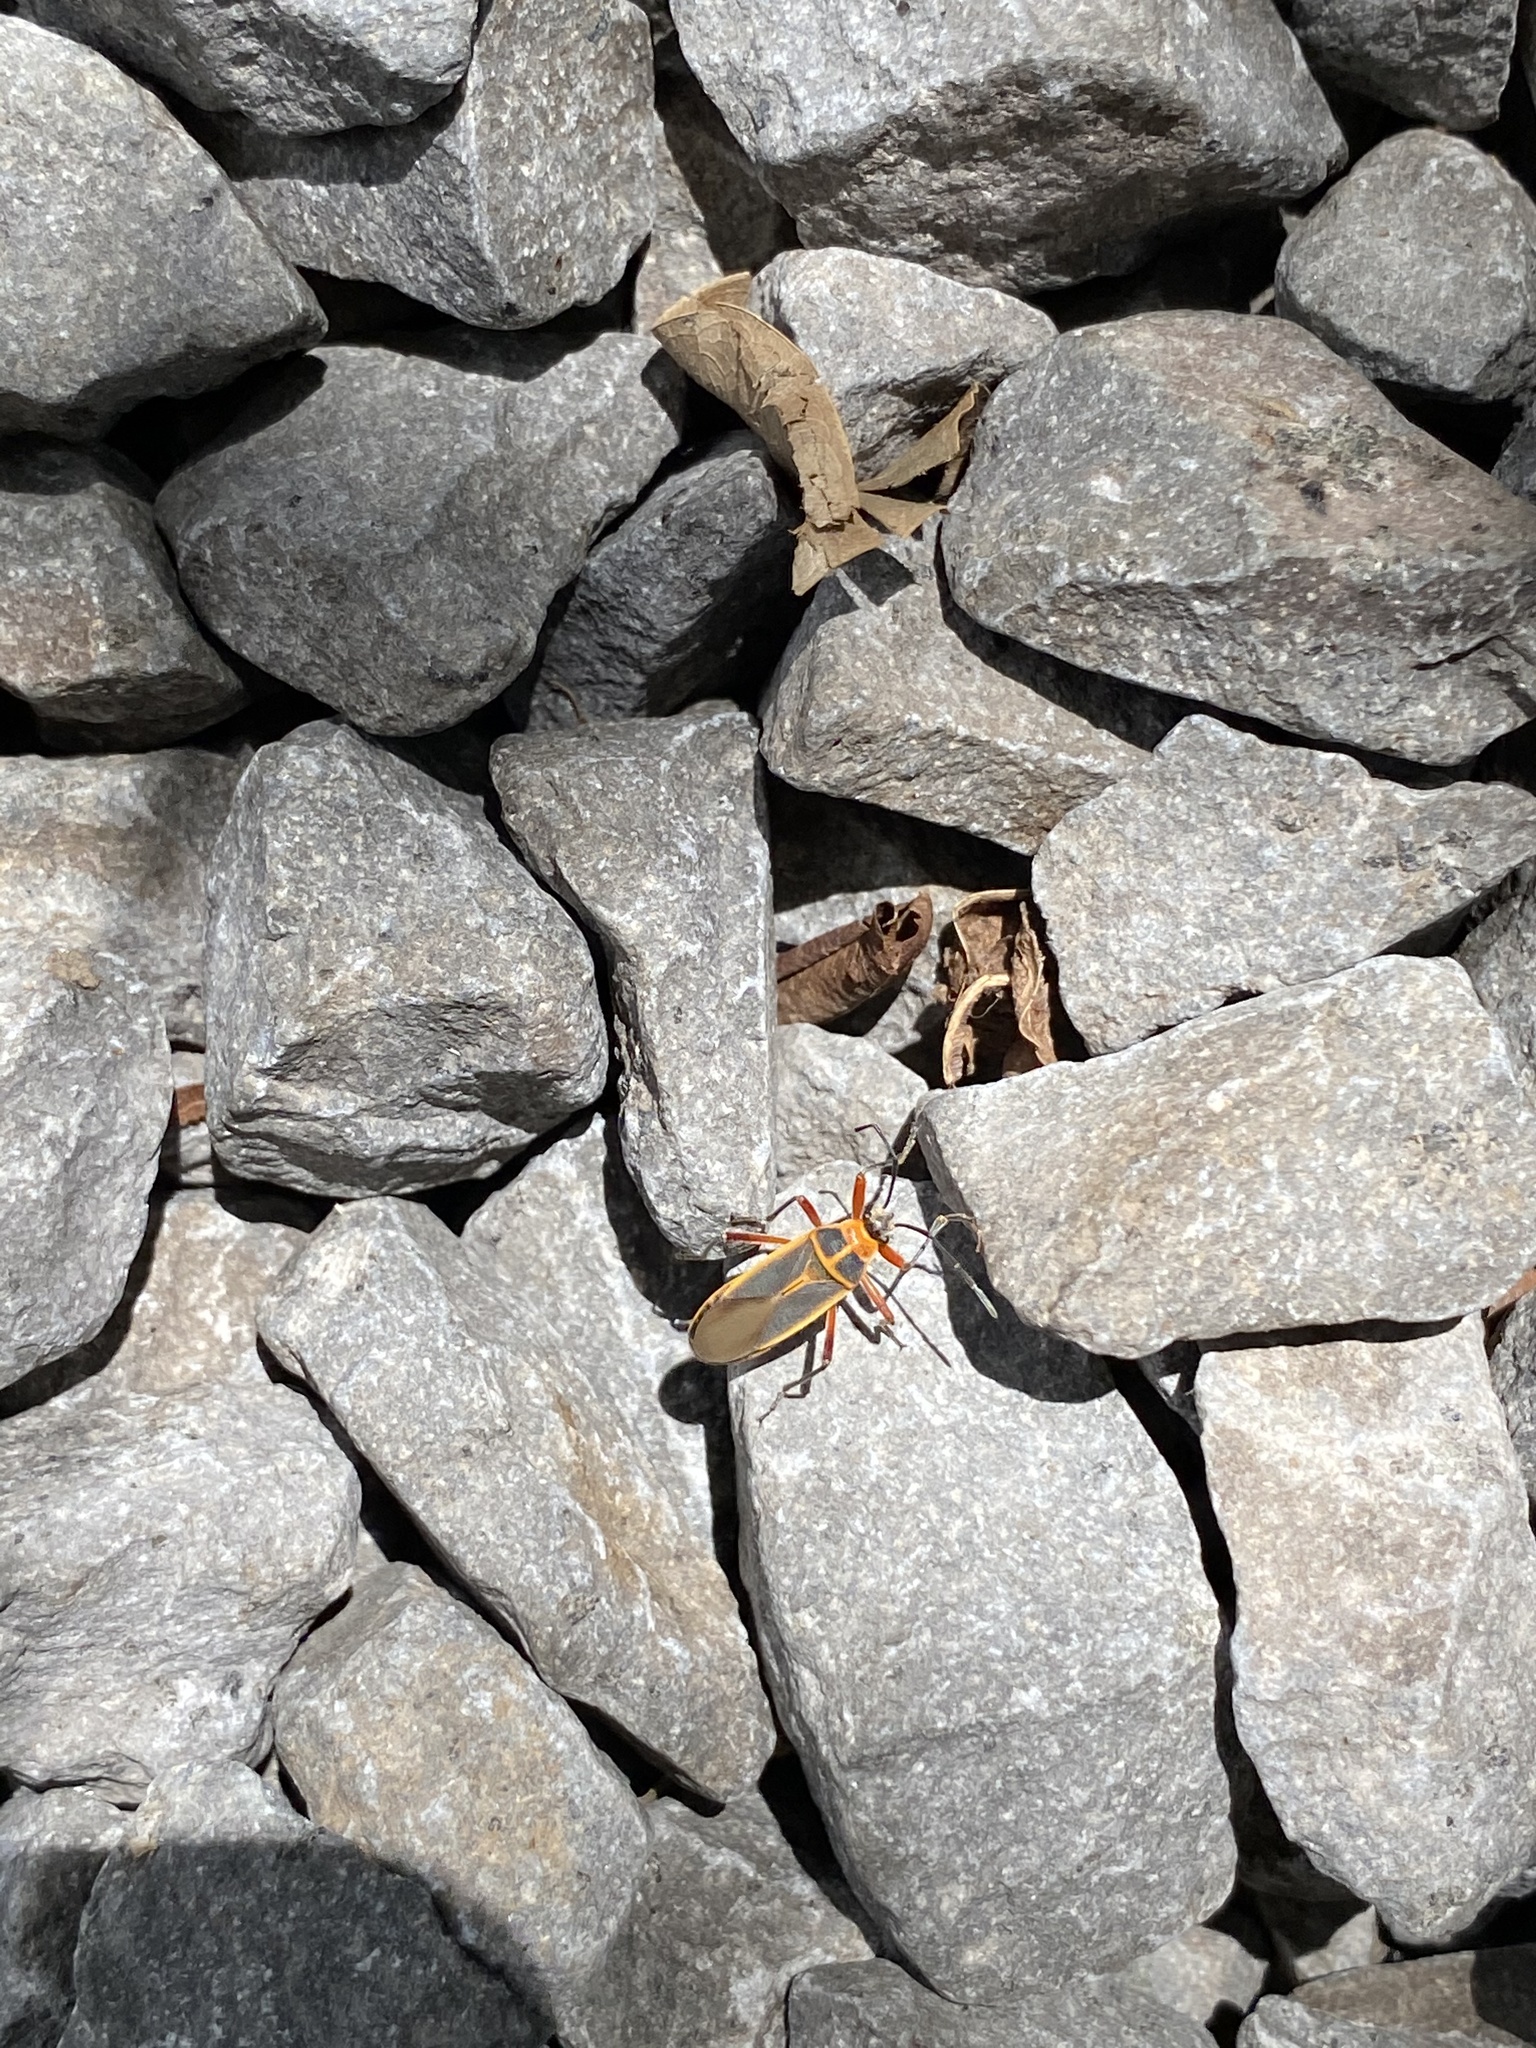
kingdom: Animalia
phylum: Arthropoda
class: Insecta
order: Hemiptera
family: Largidae
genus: Stenomacra
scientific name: Stenomacra marginella
